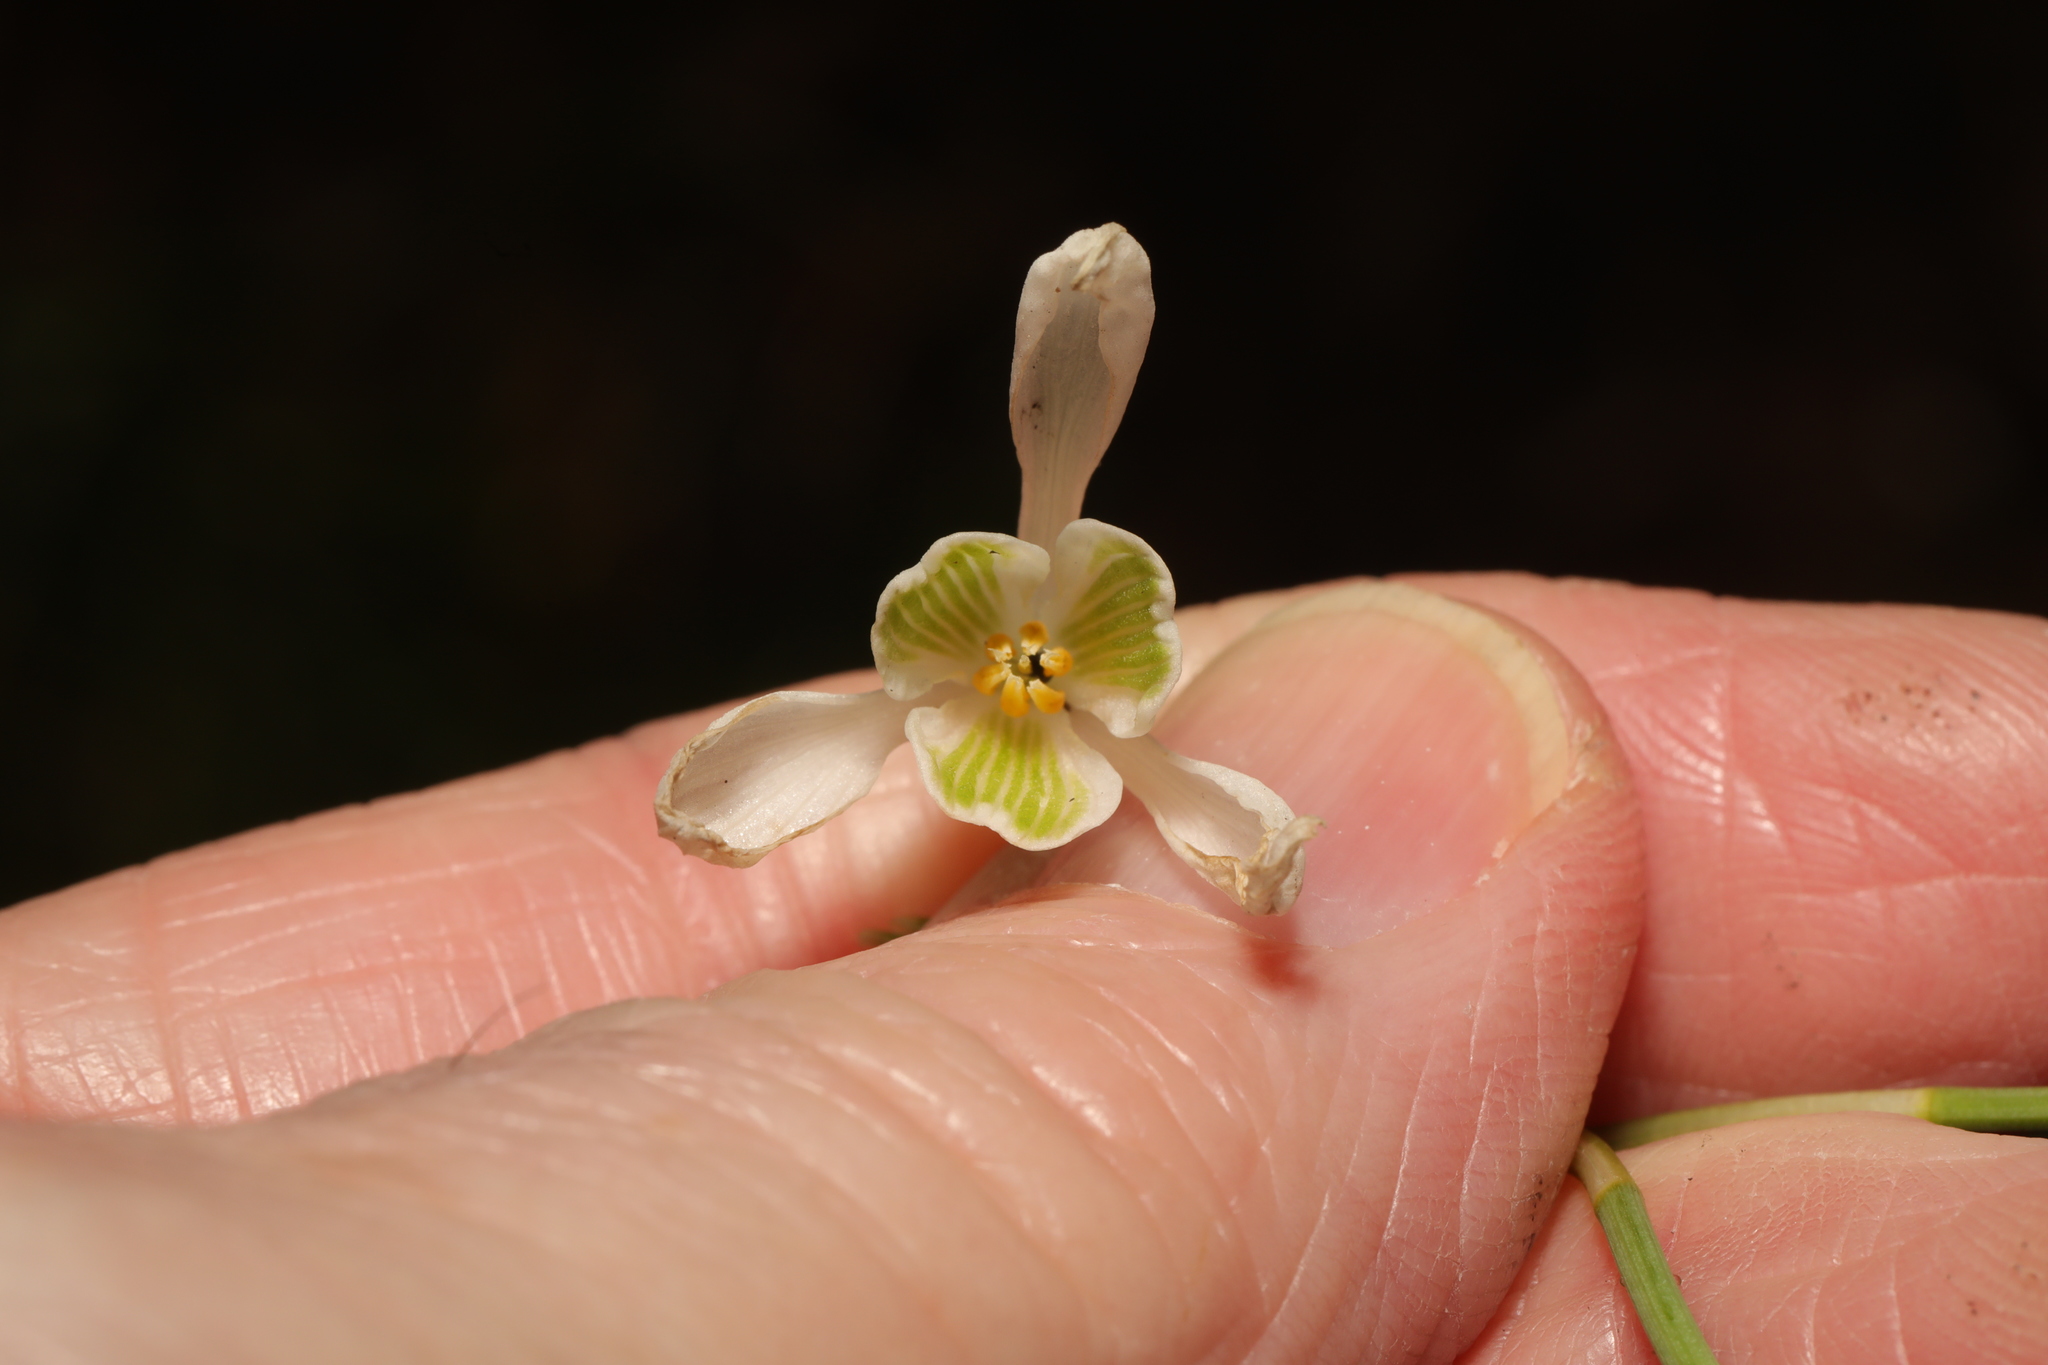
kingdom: Plantae
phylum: Tracheophyta
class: Liliopsida
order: Asparagales
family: Amaryllidaceae
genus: Galanthus
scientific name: Galanthus nivalis
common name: Snowdrop
